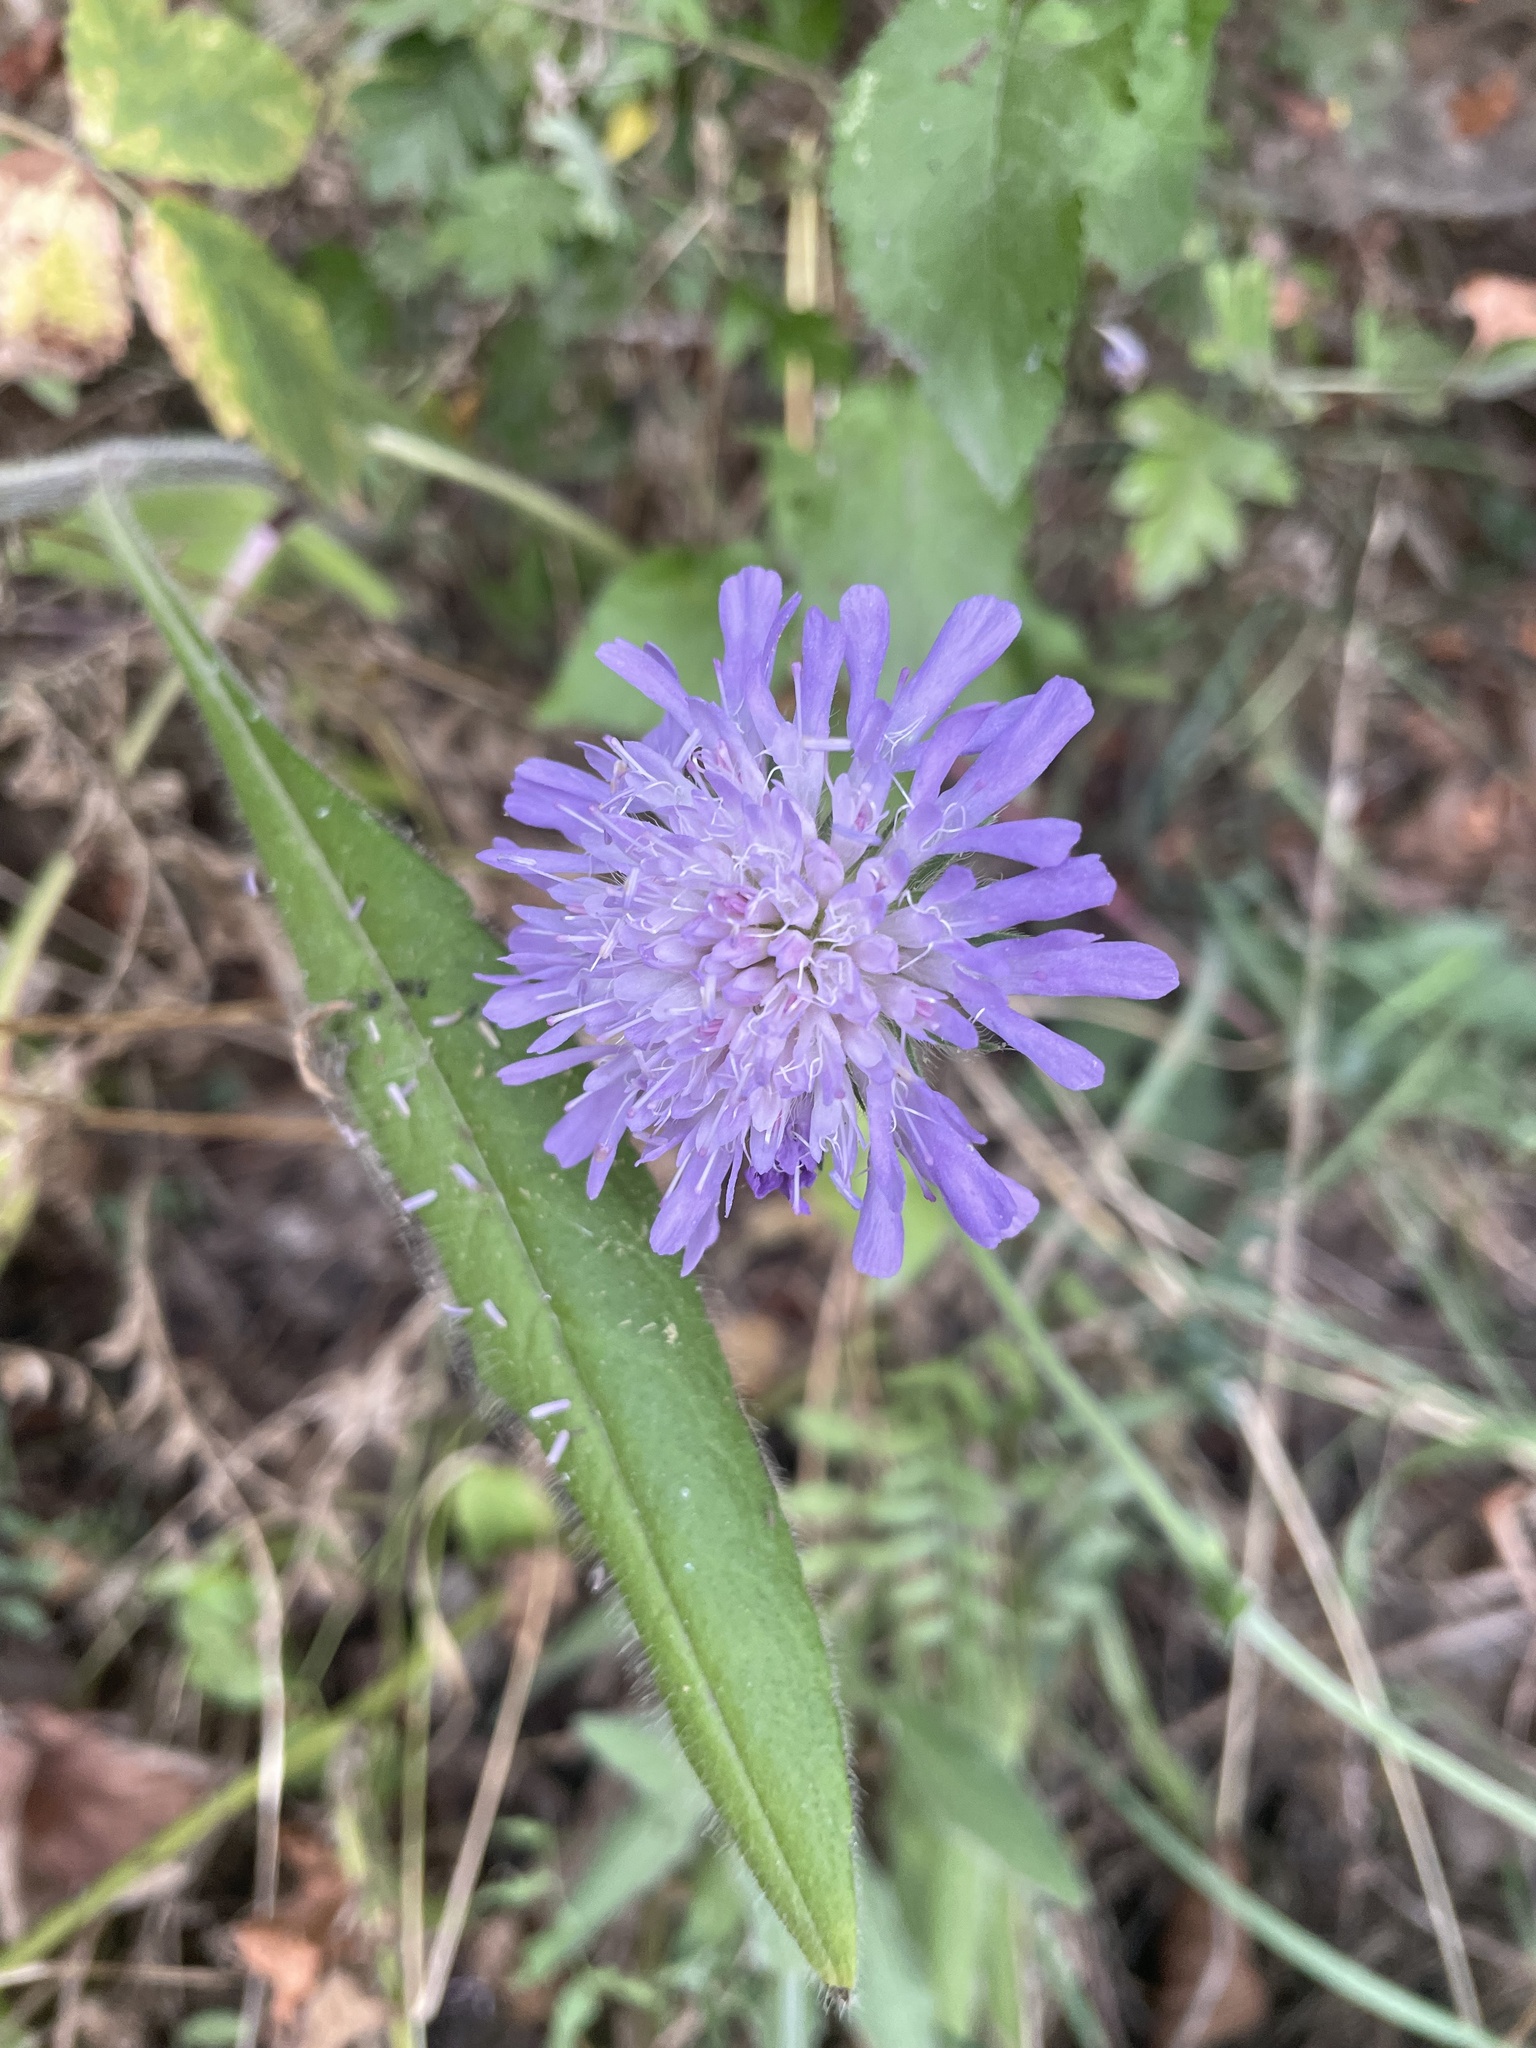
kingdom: Plantae
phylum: Tracheophyta
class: Magnoliopsida
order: Dipsacales
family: Caprifoliaceae
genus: Knautia
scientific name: Knautia arvensis
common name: Field scabiosa
